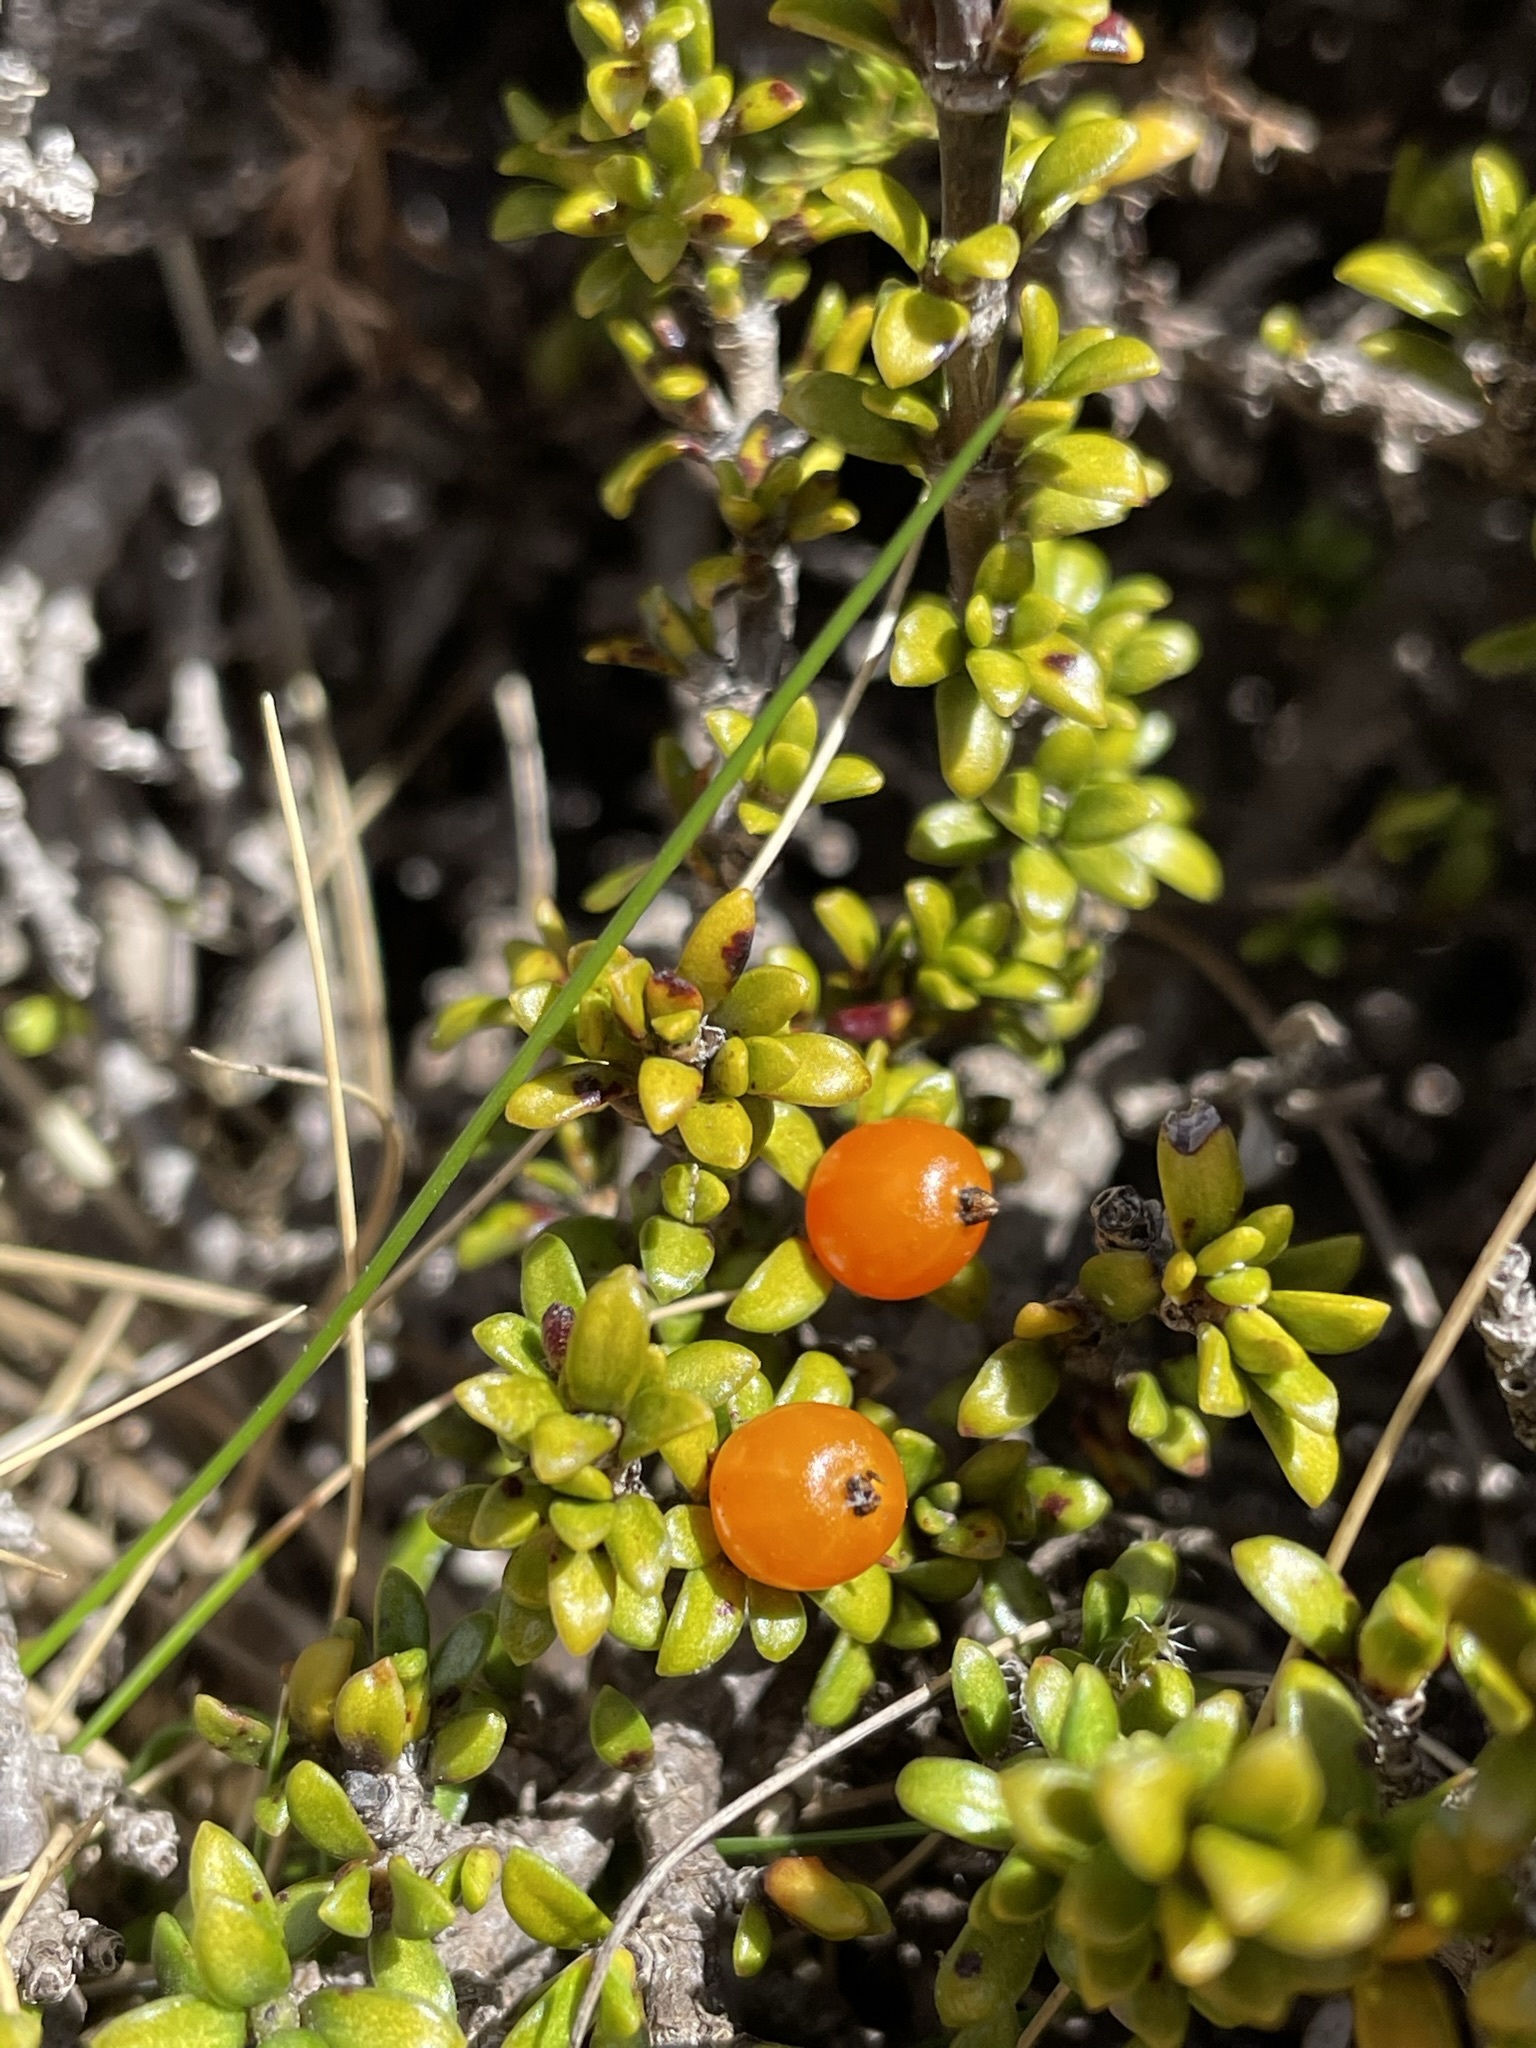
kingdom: Plantae
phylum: Tracheophyta
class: Magnoliopsida
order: Gentianales
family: Rubiaceae
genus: Coprosma
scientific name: Coprosma fowerakeri
